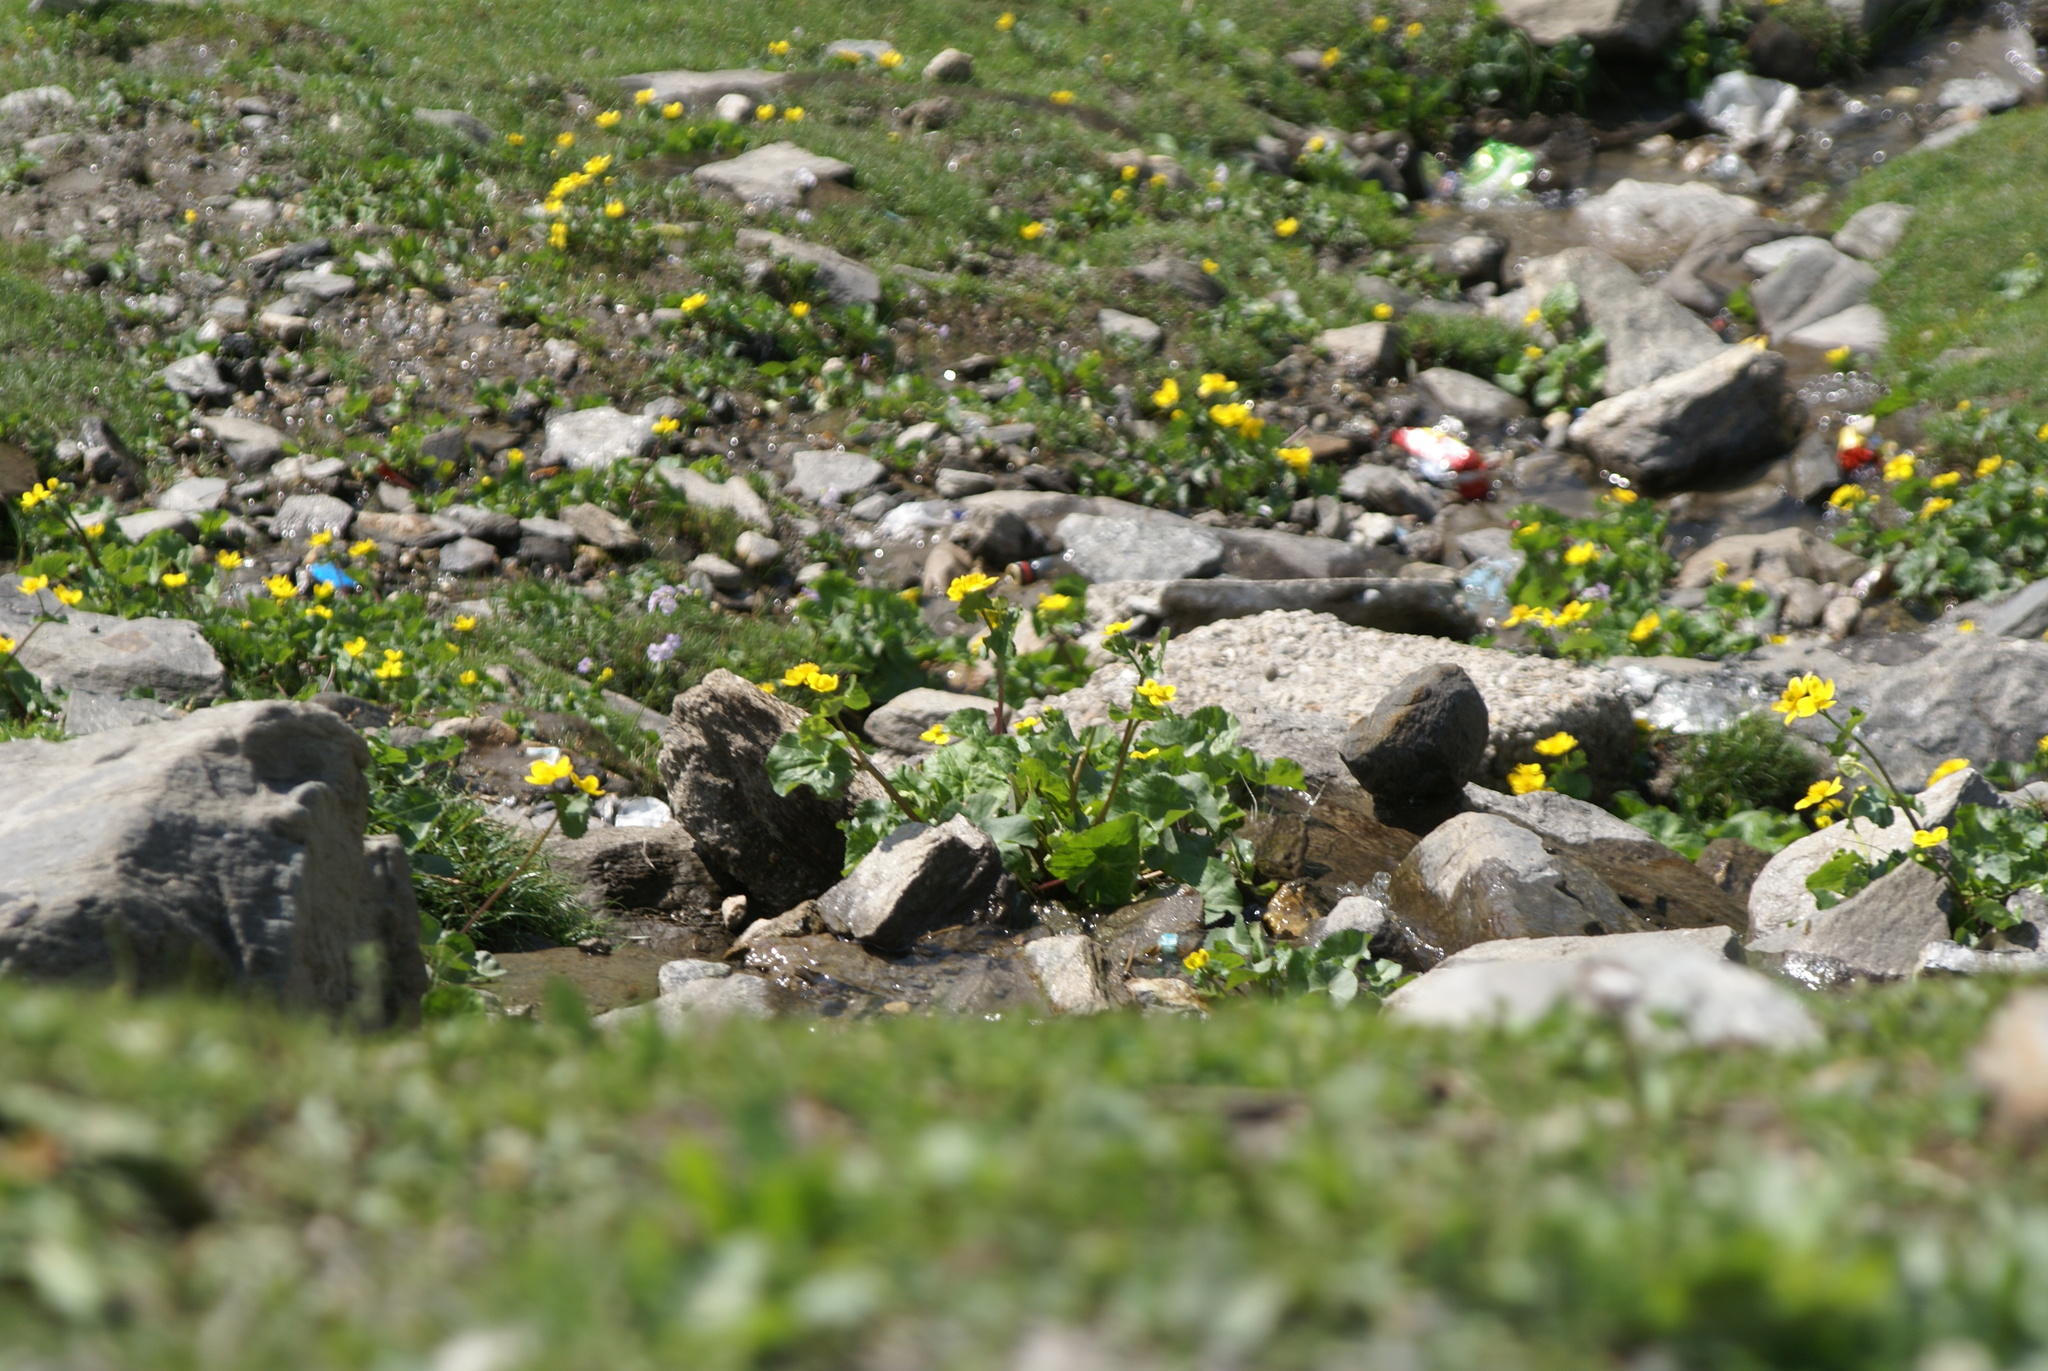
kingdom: Plantae
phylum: Tracheophyta
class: Magnoliopsida
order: Ranunculales
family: Ranunculaceae
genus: Caltha
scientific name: Caltha palustris
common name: Marsh marigold
